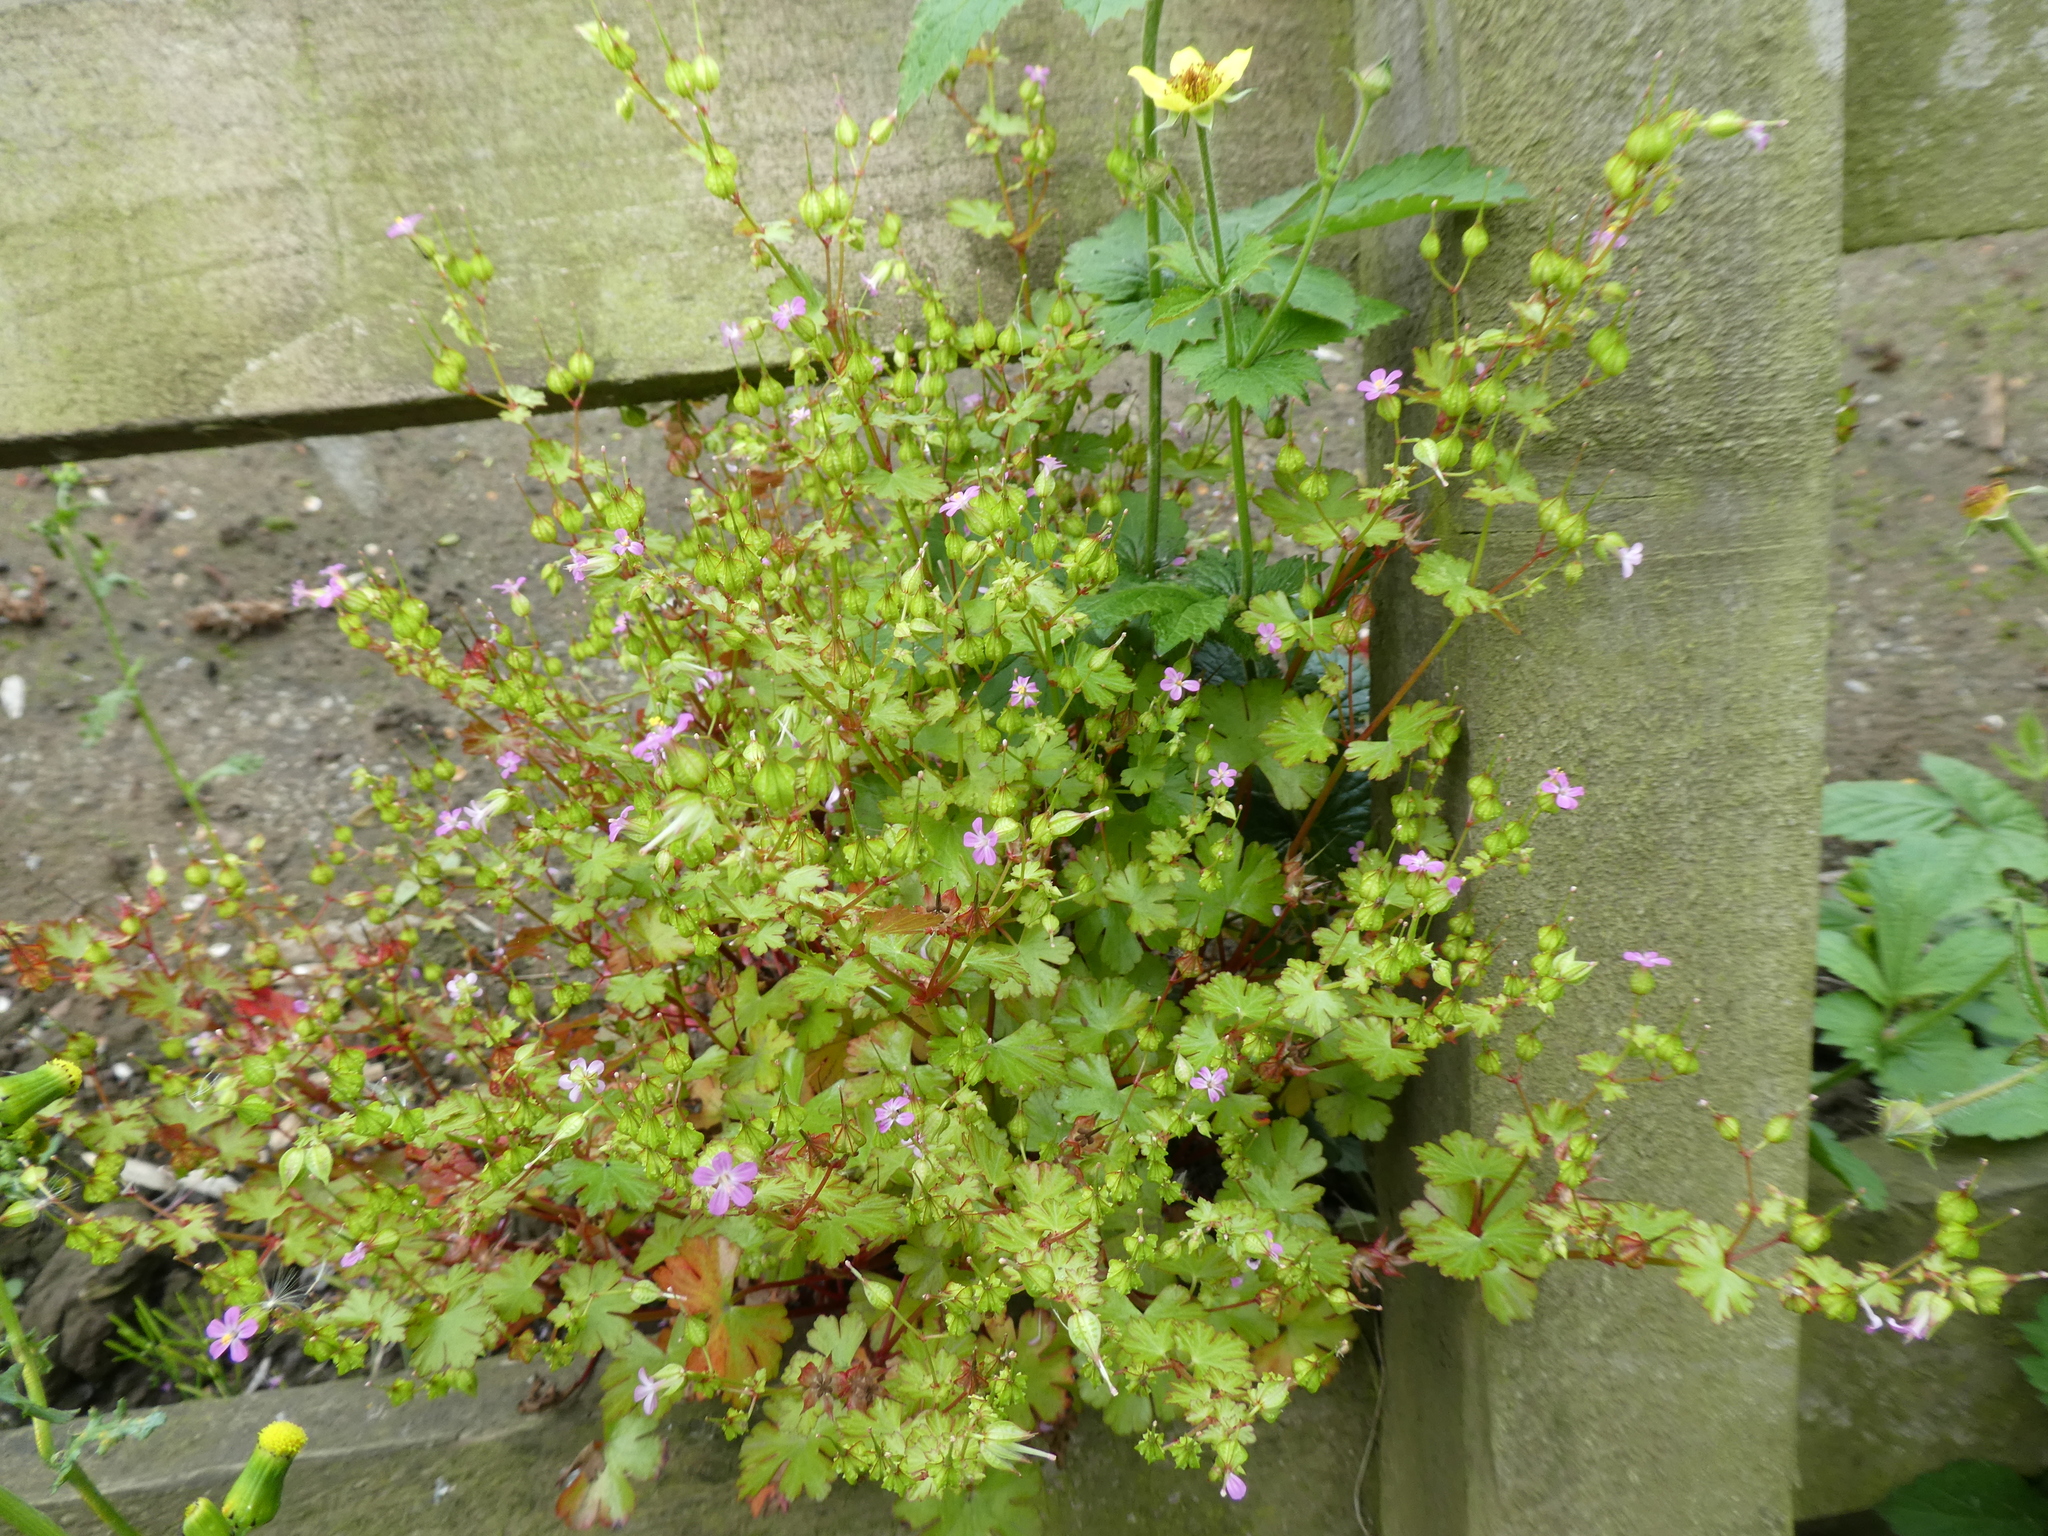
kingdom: Plantae
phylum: Tracheophyta
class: Magnoliopsida
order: Geraniales
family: Geraniaceae
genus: Geranium
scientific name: Geranium lucidum
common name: Shining crane's-bill
